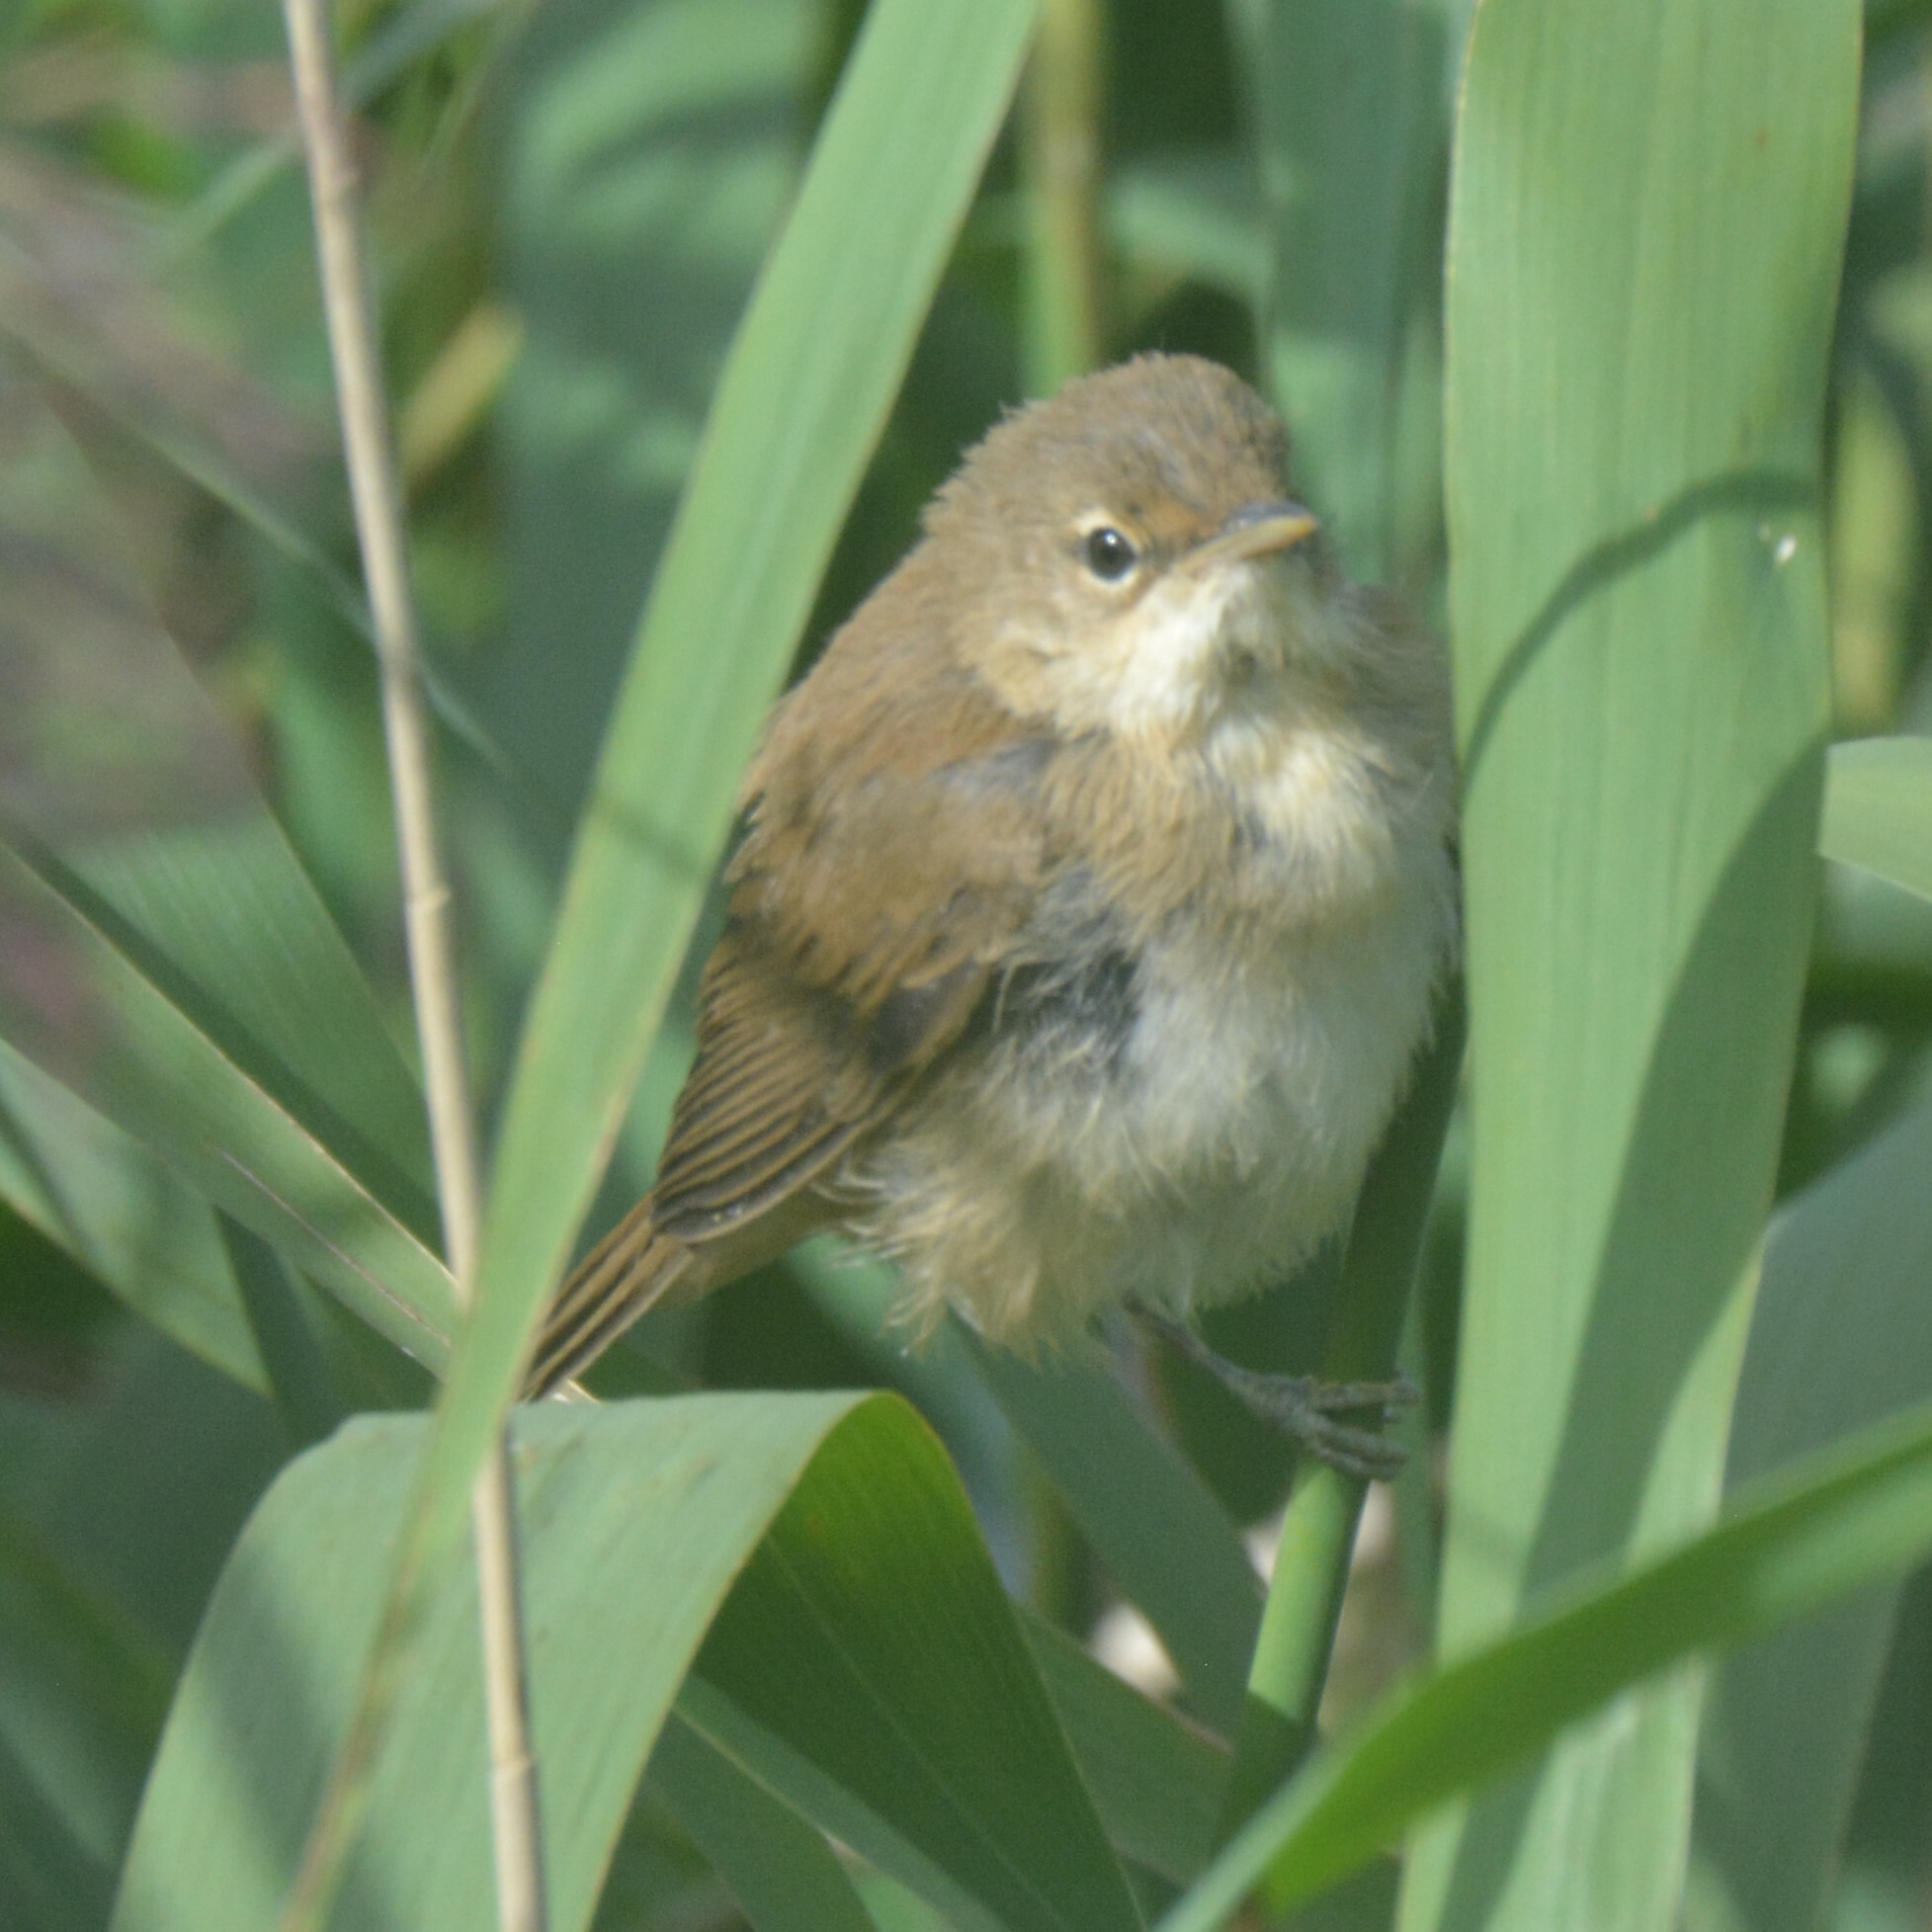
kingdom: Animalia
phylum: Chordata
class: Aves
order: Passeriformes
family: Acrocephalidae
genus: Acrocephalus
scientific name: Acrocephalus scirpaceus
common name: Eurasian reed warbler
